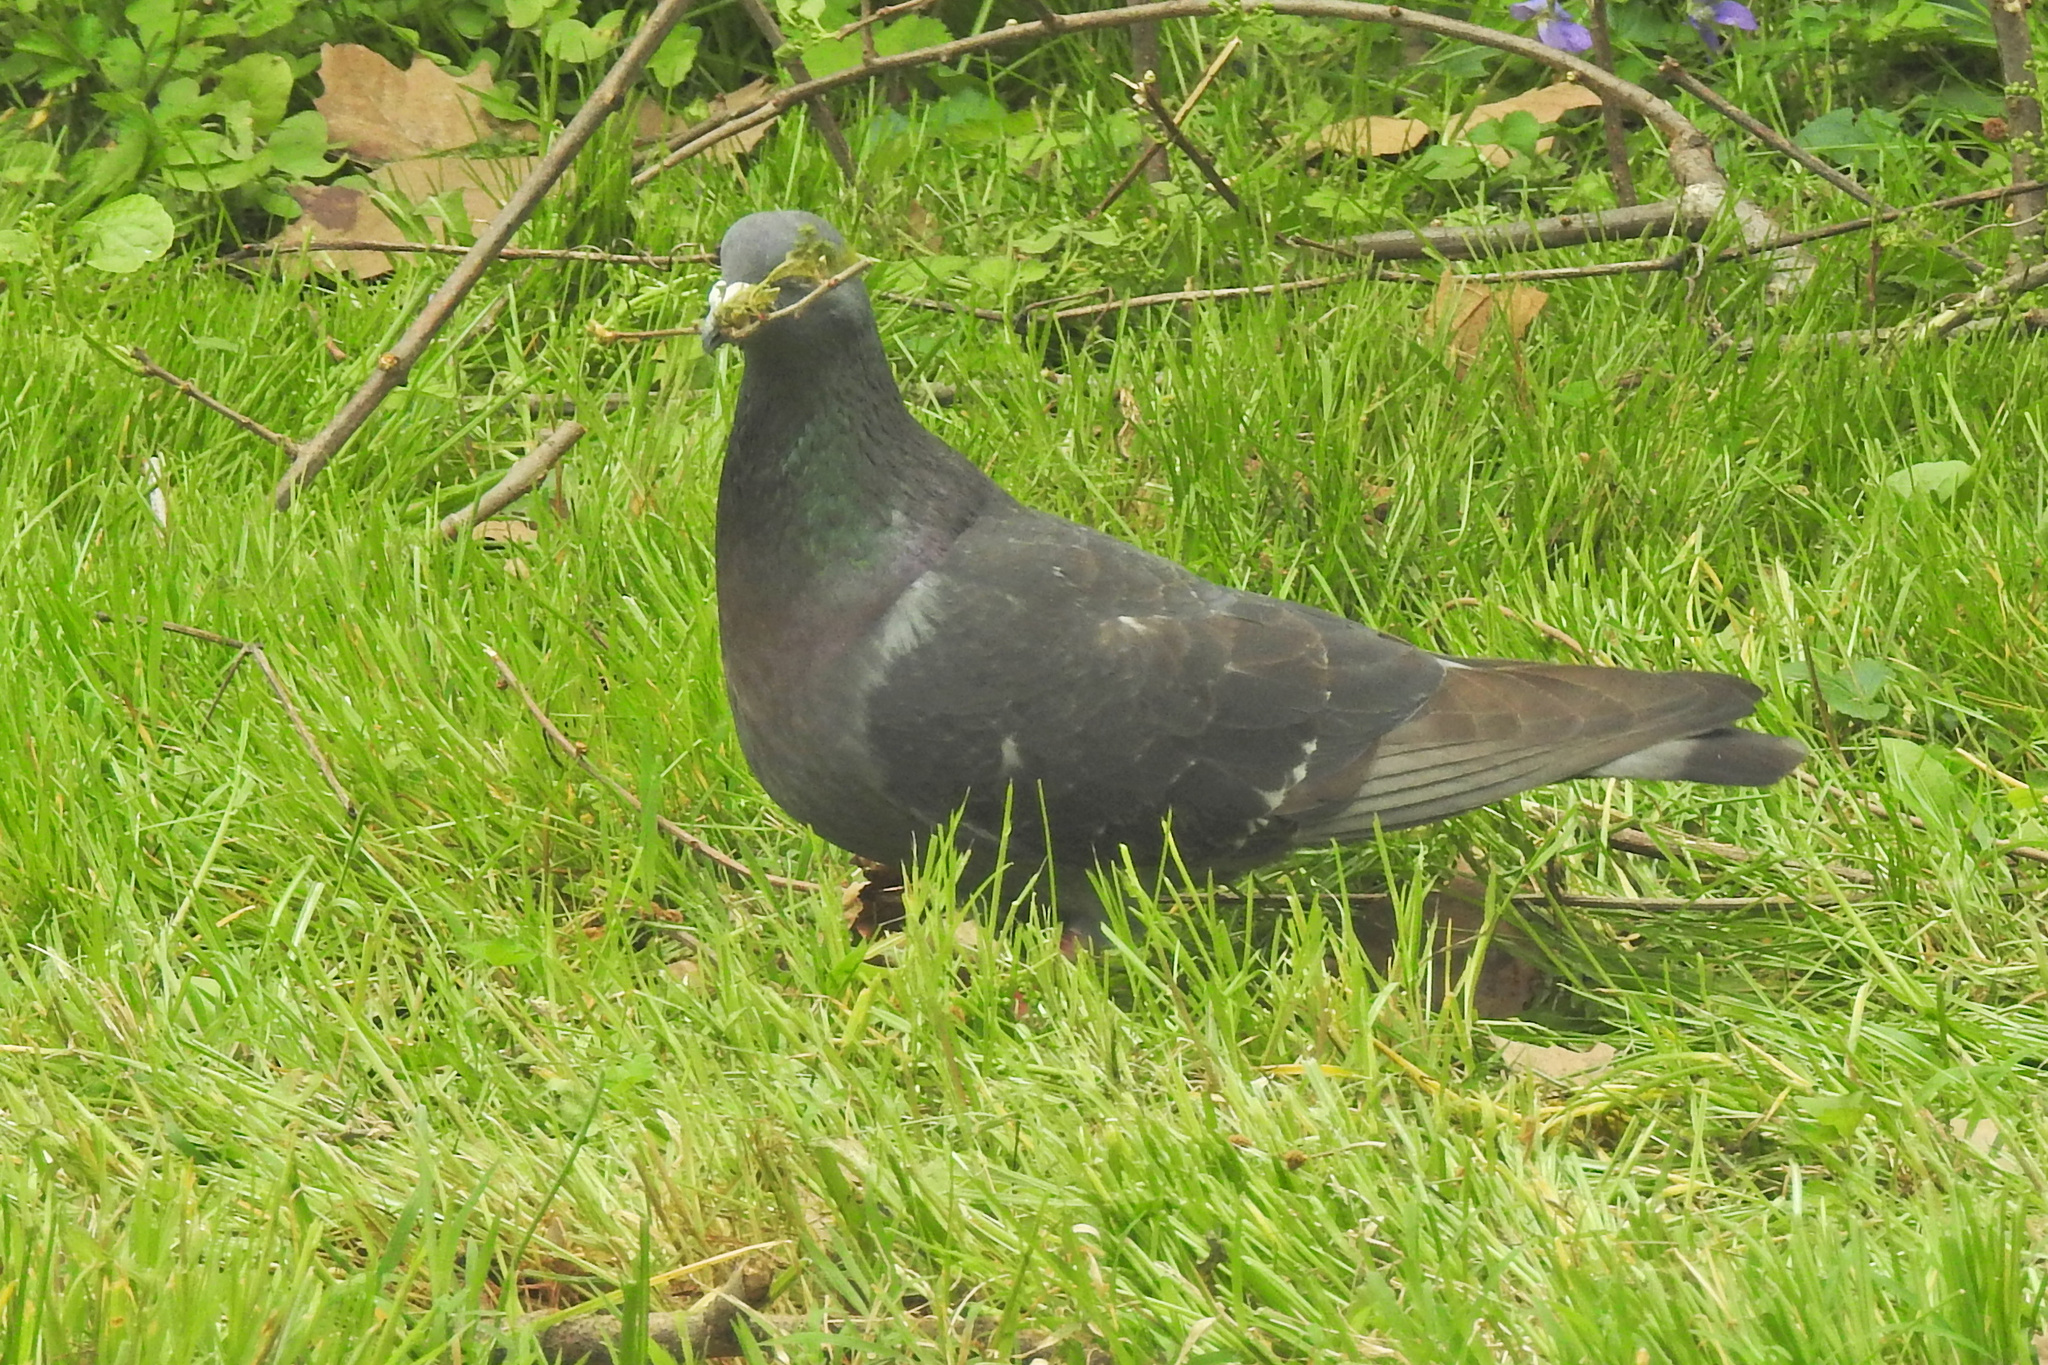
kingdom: Animalia
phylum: Chordata
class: Aves
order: Columbiformes
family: Columbidae
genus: Columba
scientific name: Columba livia
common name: Rock pigeon
